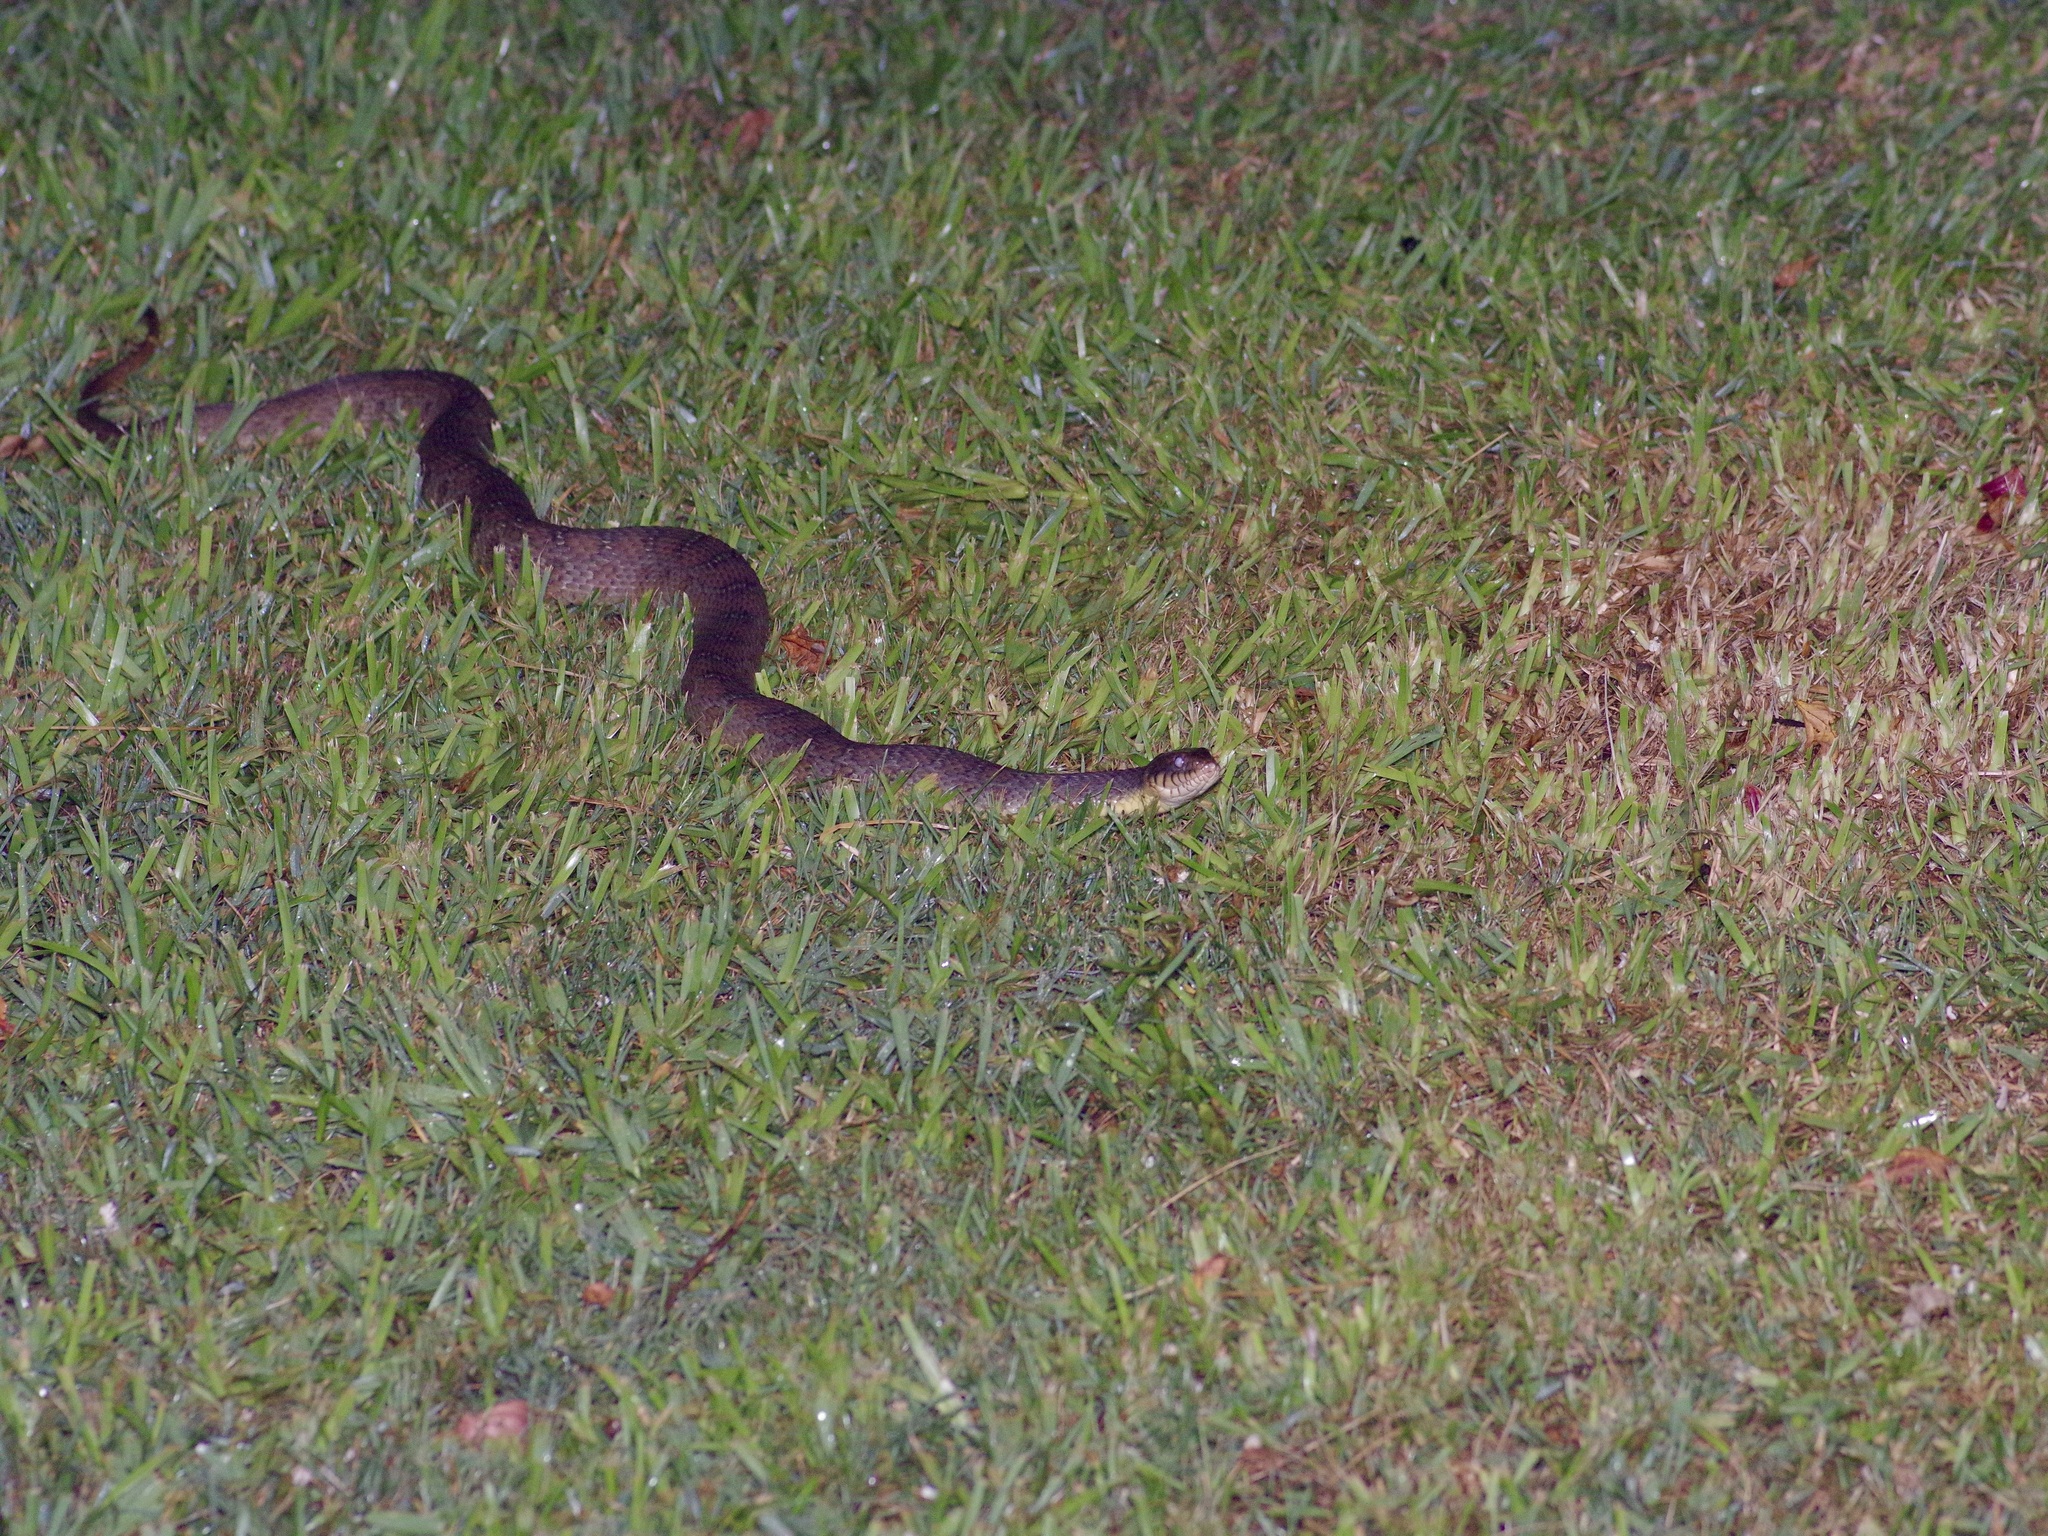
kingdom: Animalia
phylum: Chordata
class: Squamata
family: Colubridae
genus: Nerodia
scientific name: Nerodia erythrogaster
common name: Plainbelly water snake
